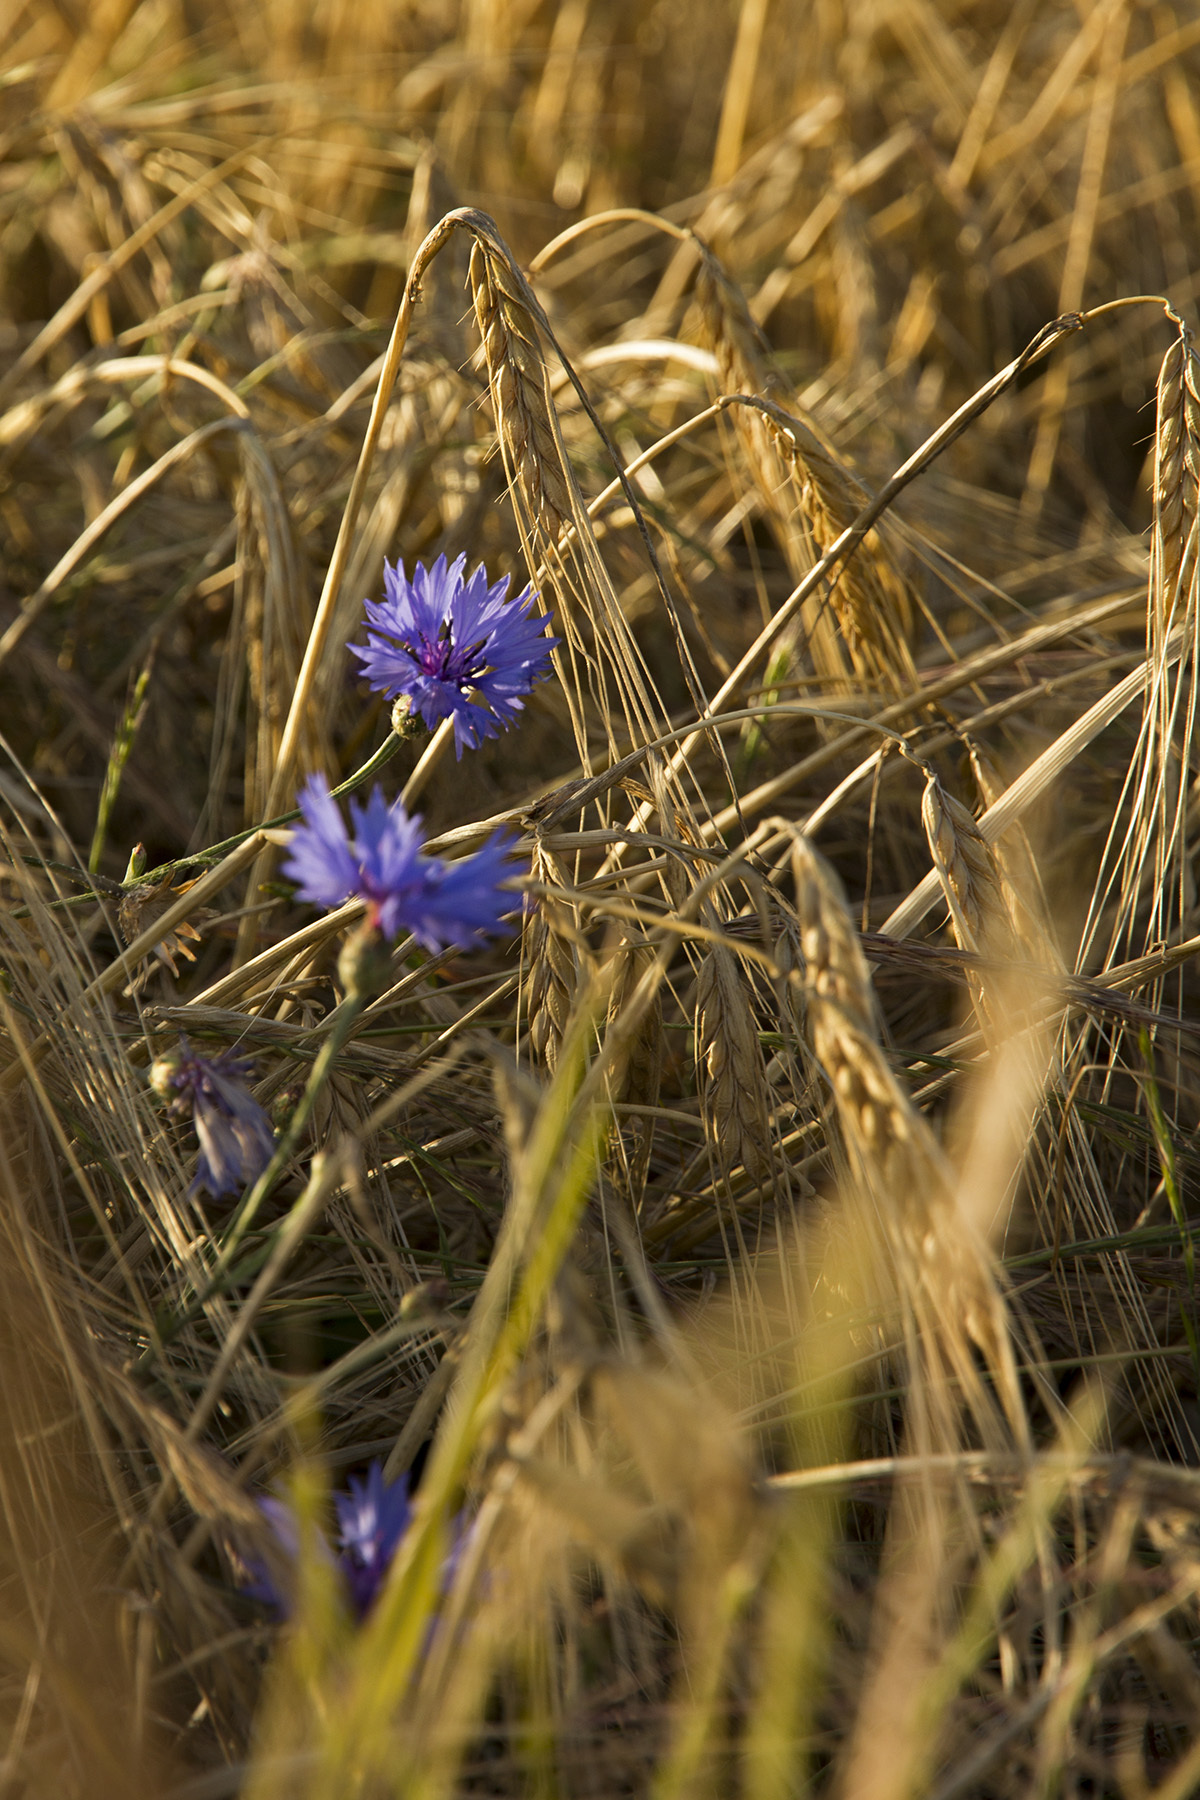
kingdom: Plantae
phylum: Tracheophyta
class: Magnoliopsida
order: Asterales
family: Asteraceae
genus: Centaurea
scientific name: Centaurea cyanus
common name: Cornflower
